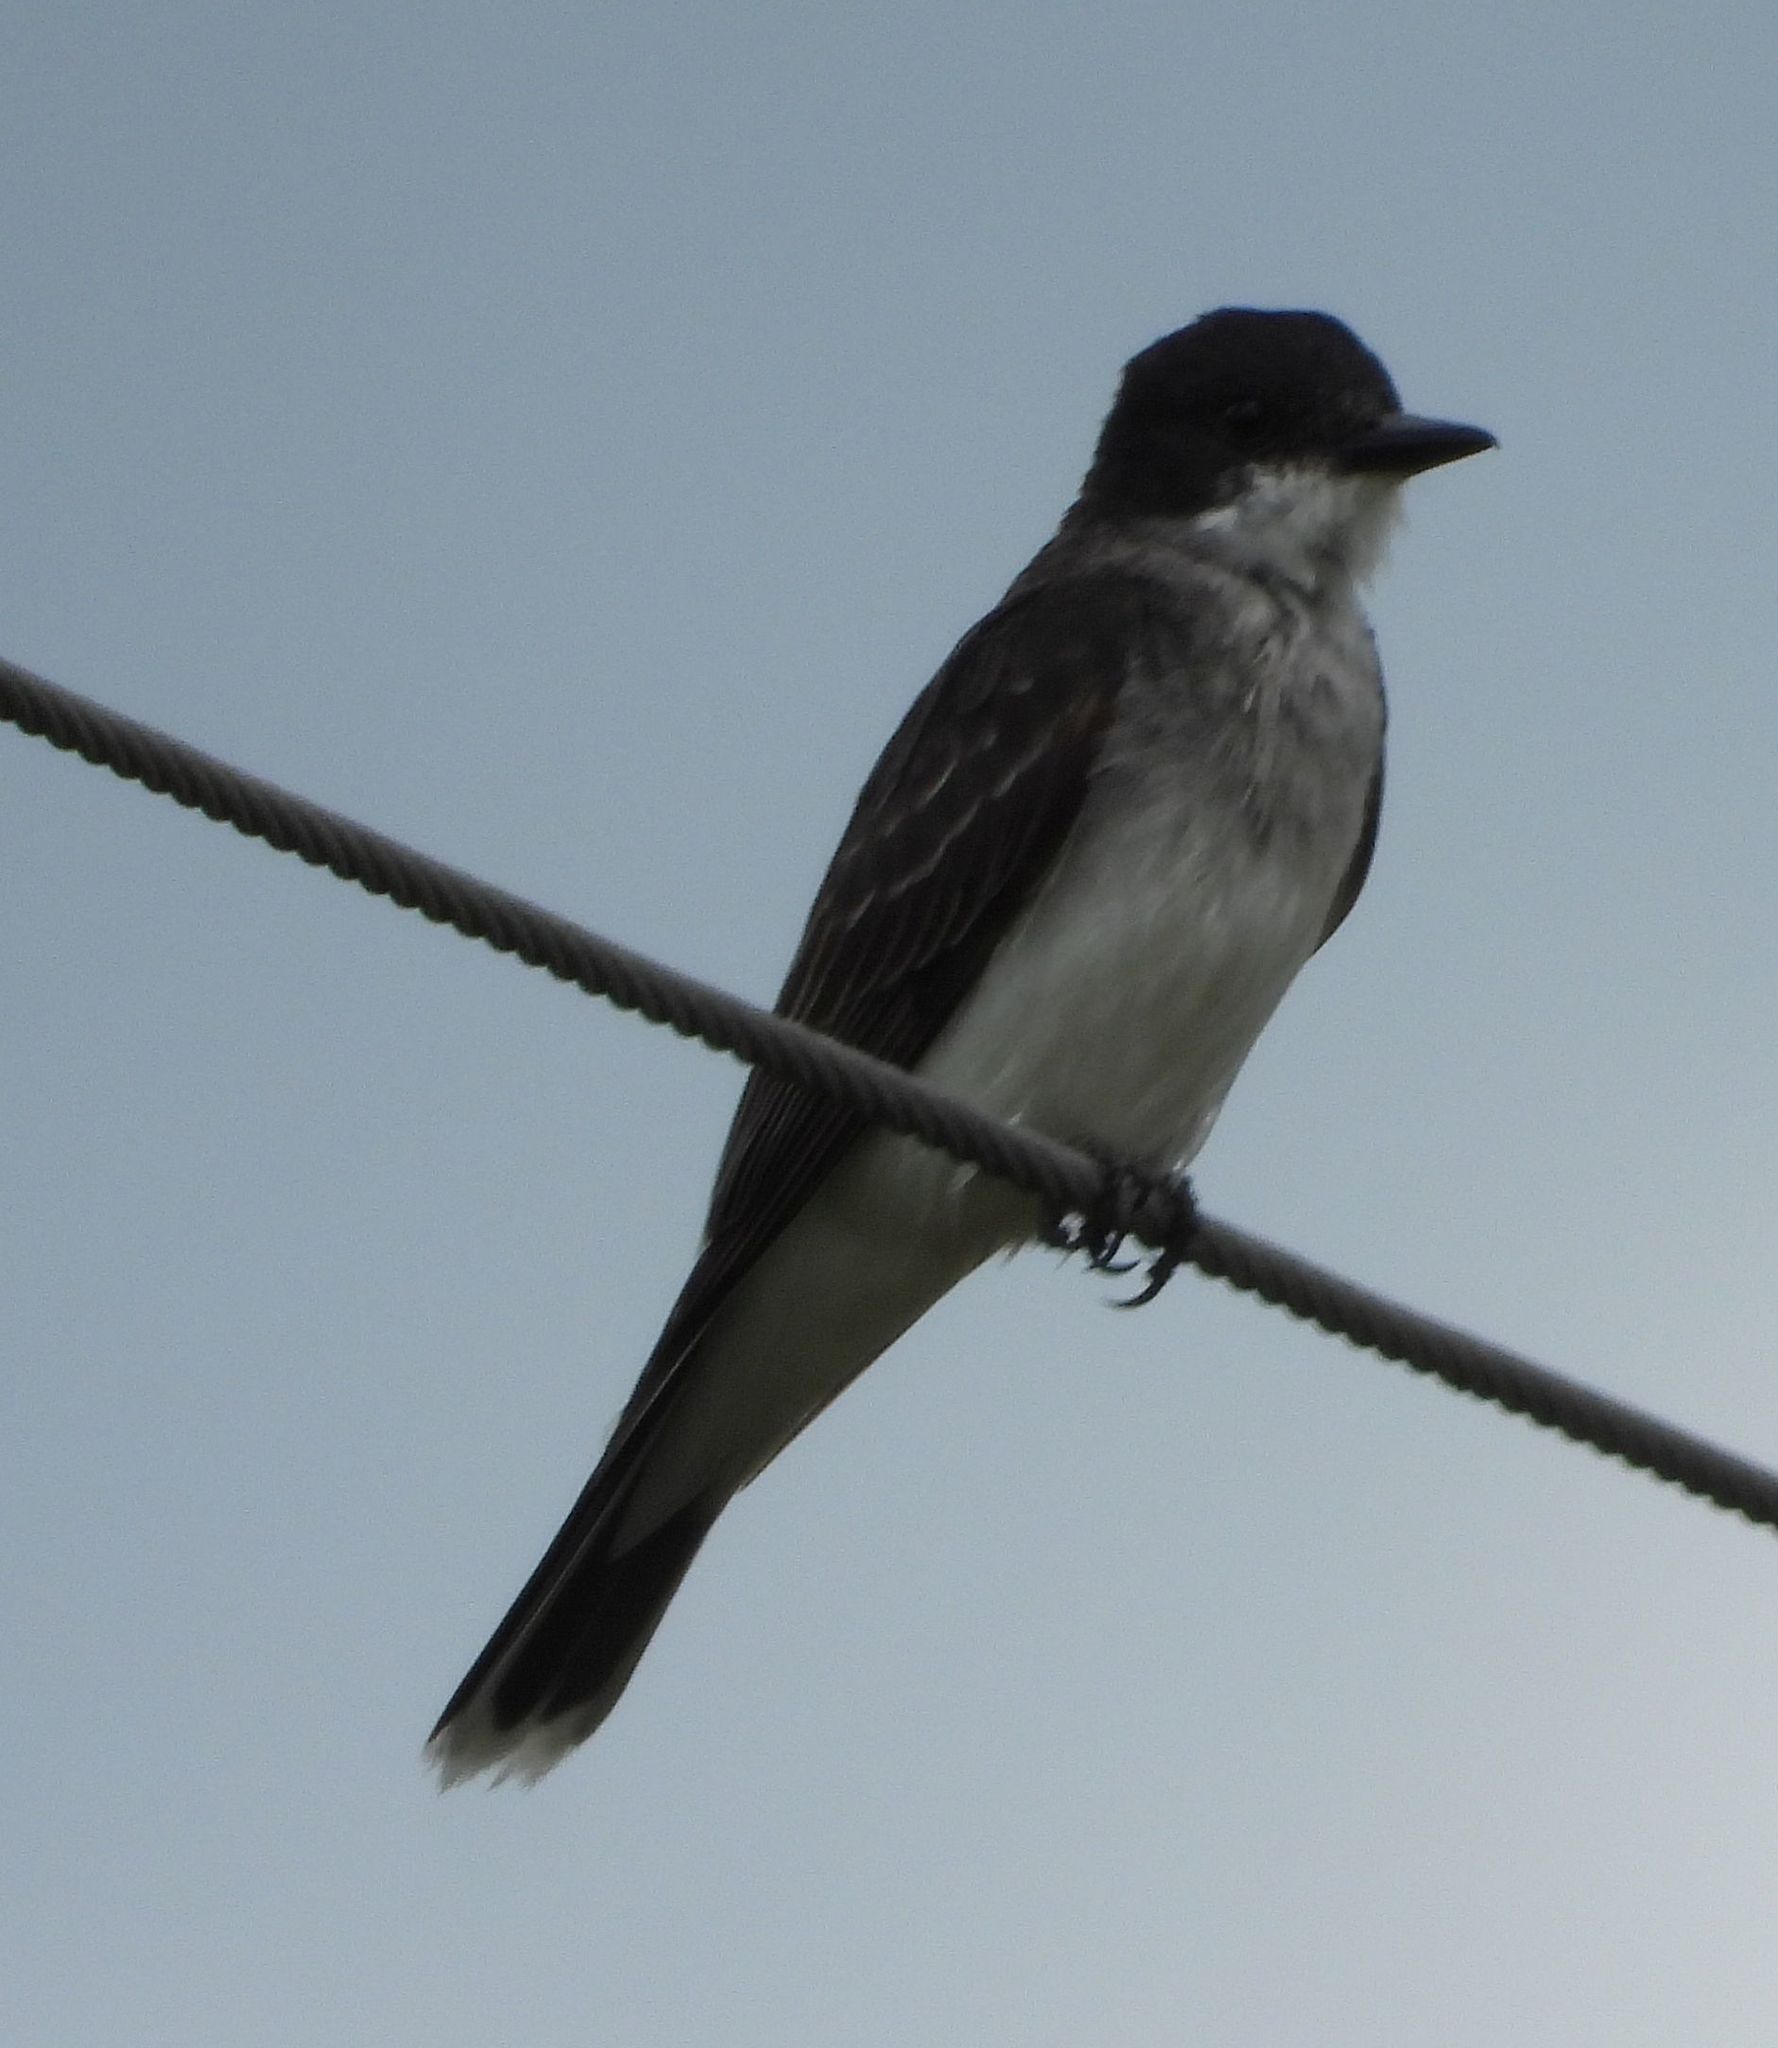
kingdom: Animalia
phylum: Chordata
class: Aves
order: Passeriformes
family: Tyrannidae
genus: Tyrannus
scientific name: Tyrannus tyrannus
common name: Eastern kingbird
